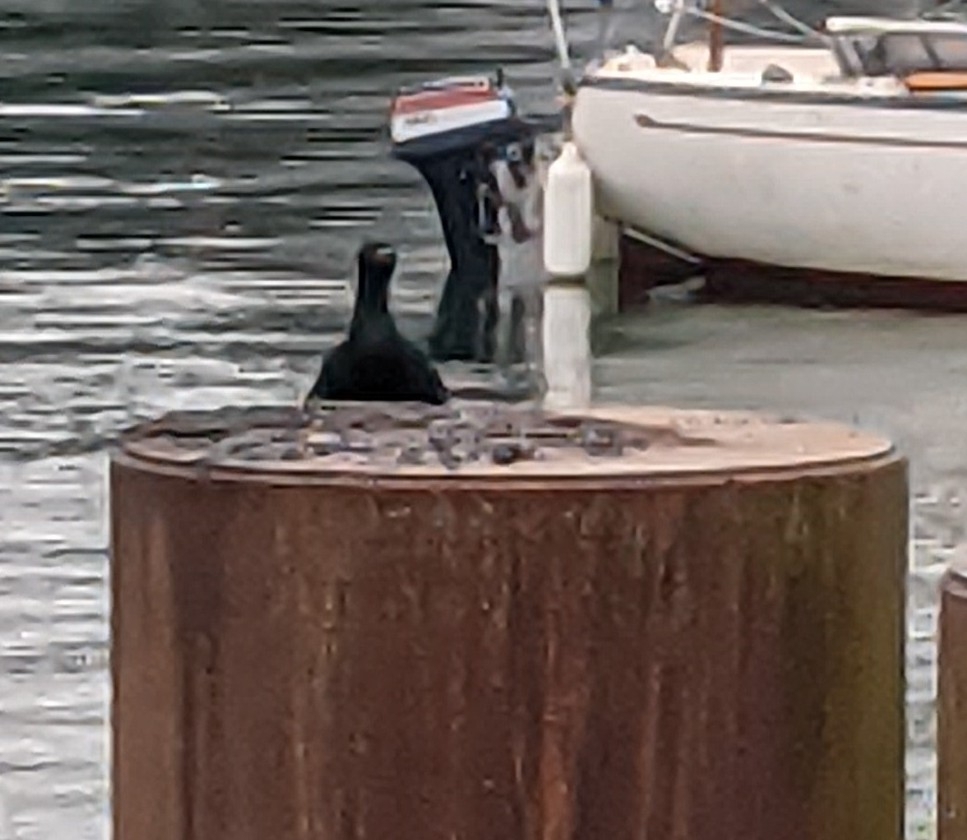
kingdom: Animalia
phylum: Chordata
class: Aves
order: Suliformes
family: Phalacrocoracidae
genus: Phalacrocorax
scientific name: Phalacrocorax pelagicus
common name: Pelagic cormorant
